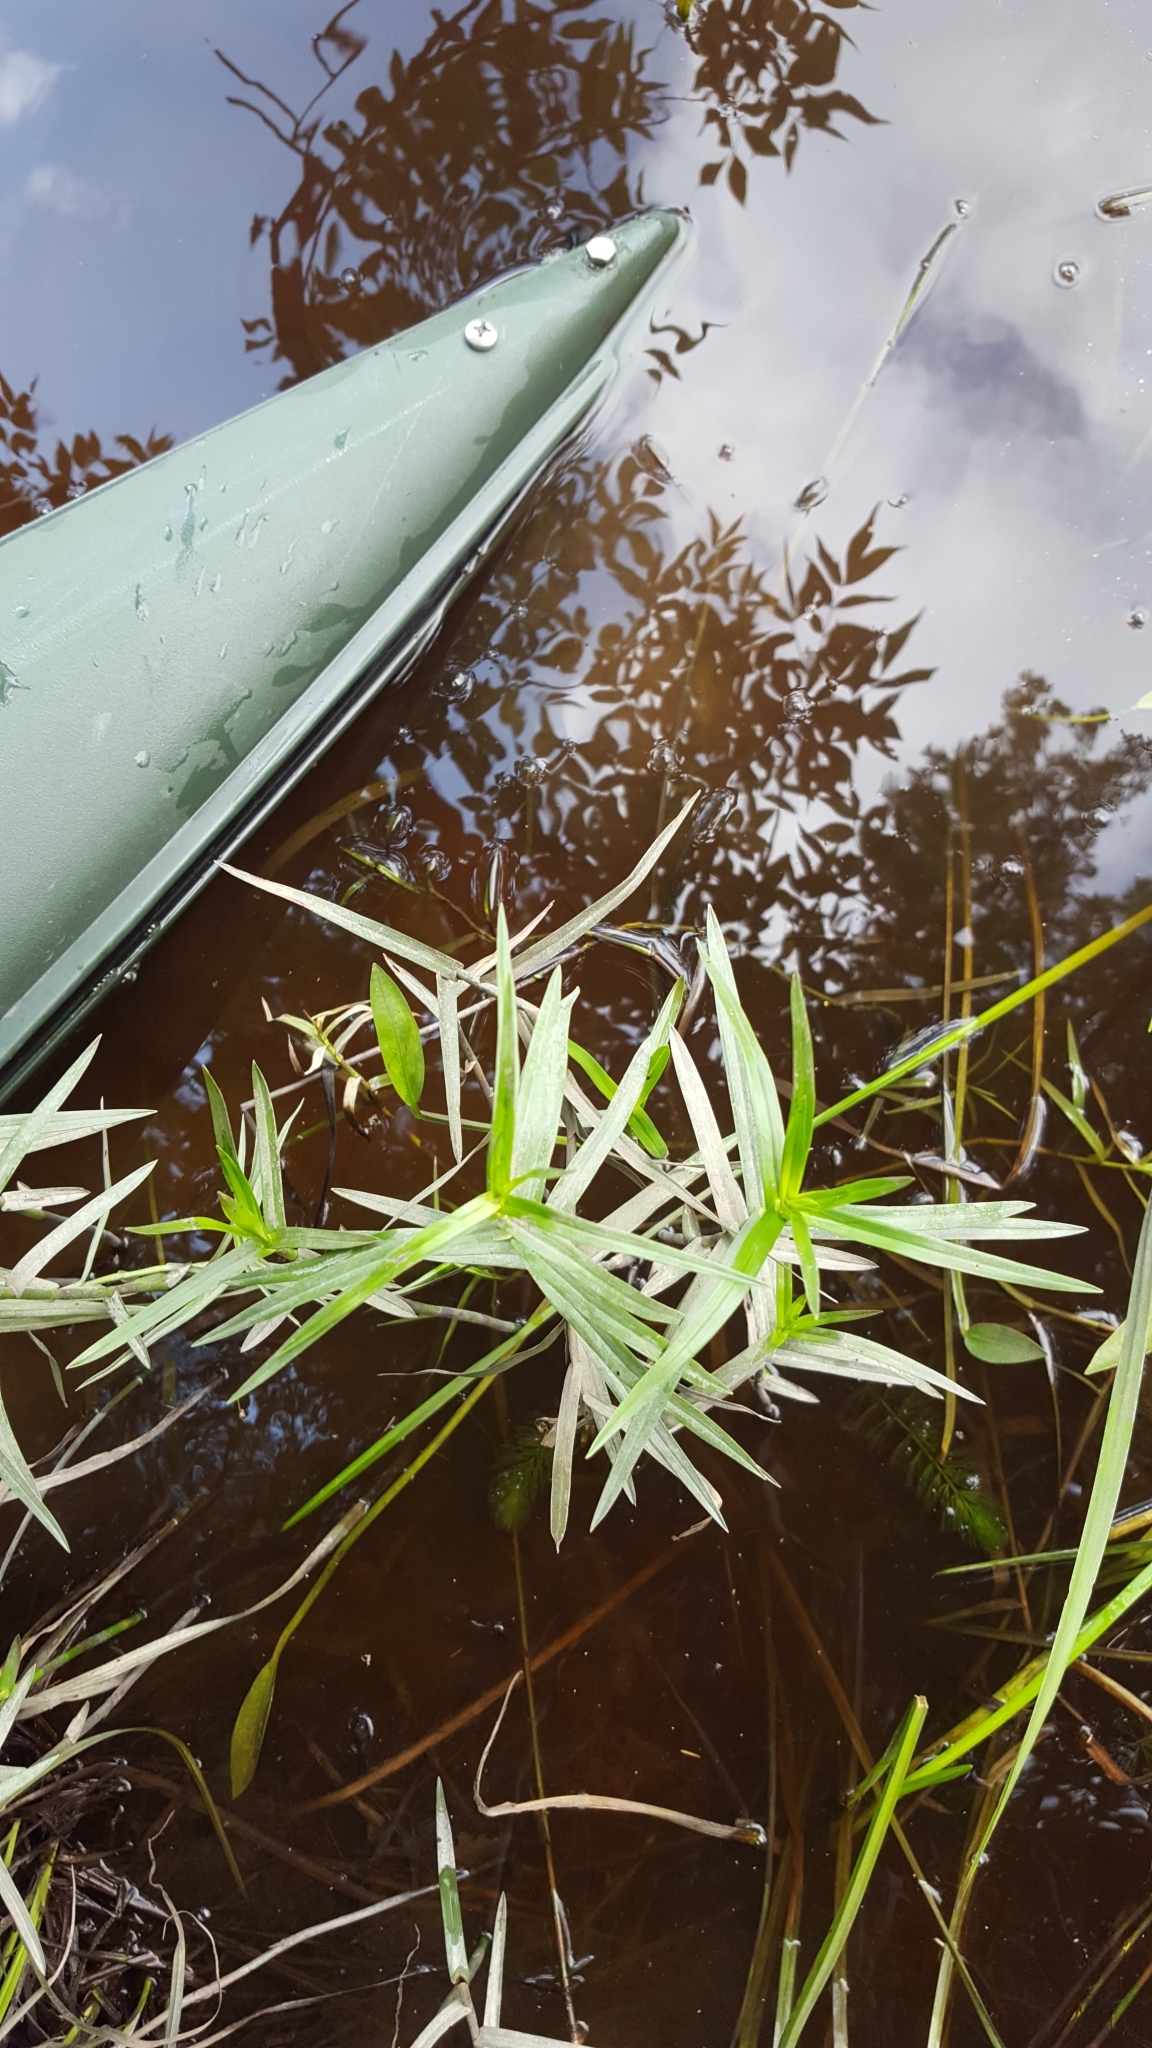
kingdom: Plantae
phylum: Tracheophyta
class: Liliopsida
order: Poales
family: Cyperaceae
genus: Dulichium
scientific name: Dulichium arundinaceum
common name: Three-way sedge
